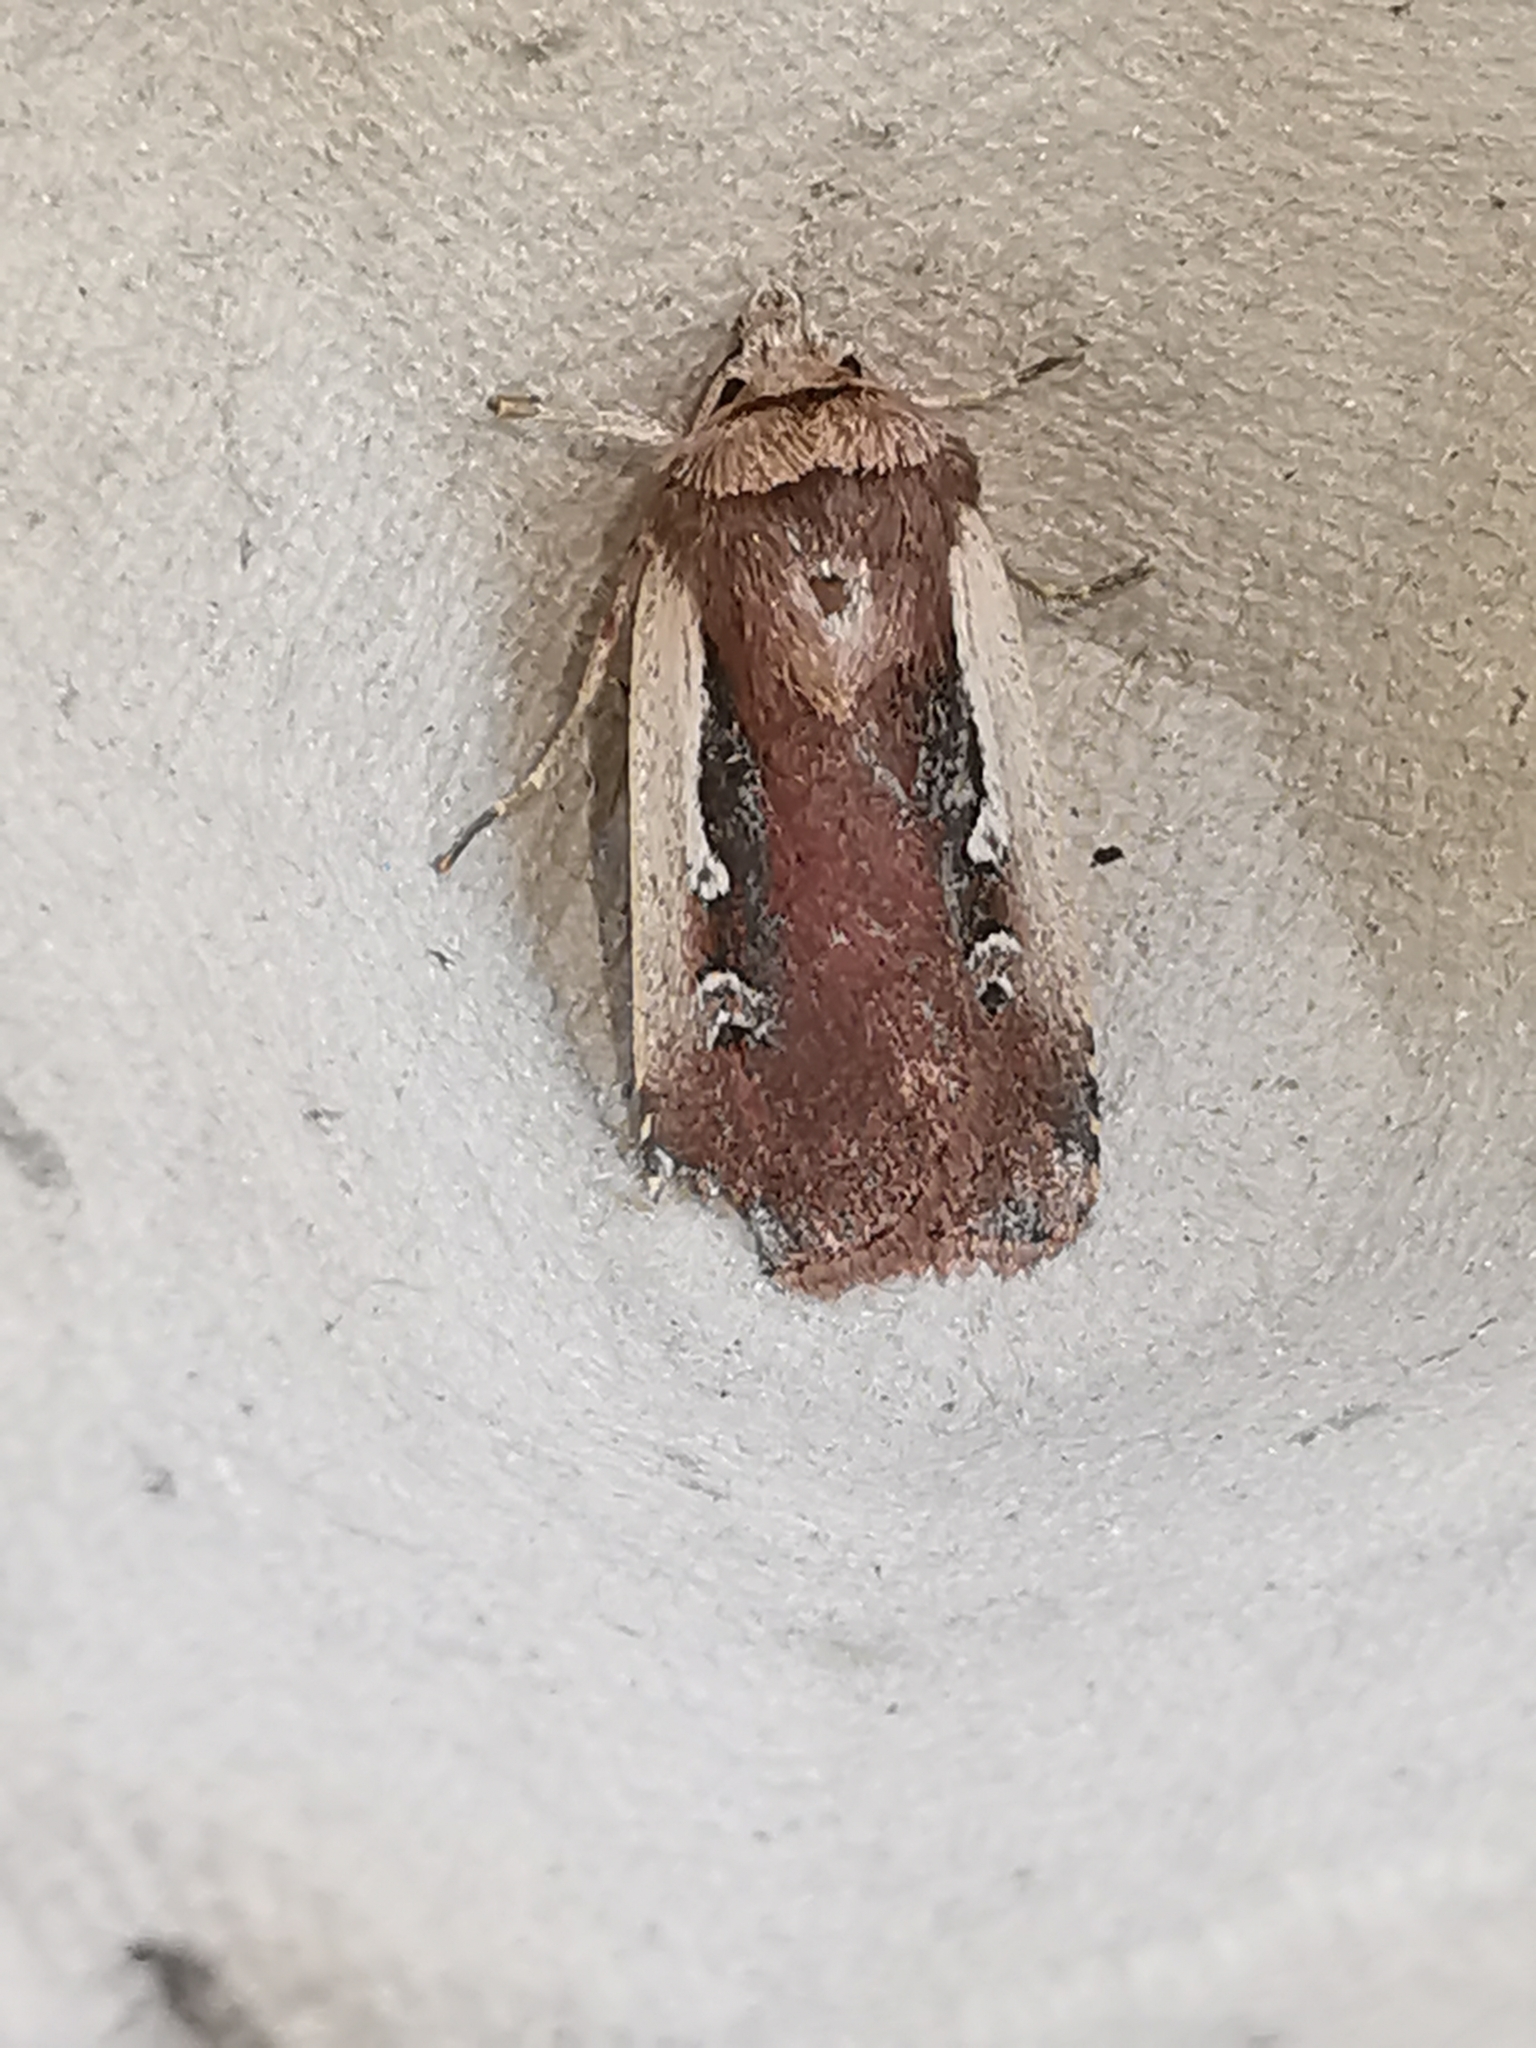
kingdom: Animalia
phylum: Arthropoda
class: Insecta
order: Lepidoptera
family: Noctuidae
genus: Ochropleura
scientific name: Ochropleura plecta
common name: Flame shoulder
